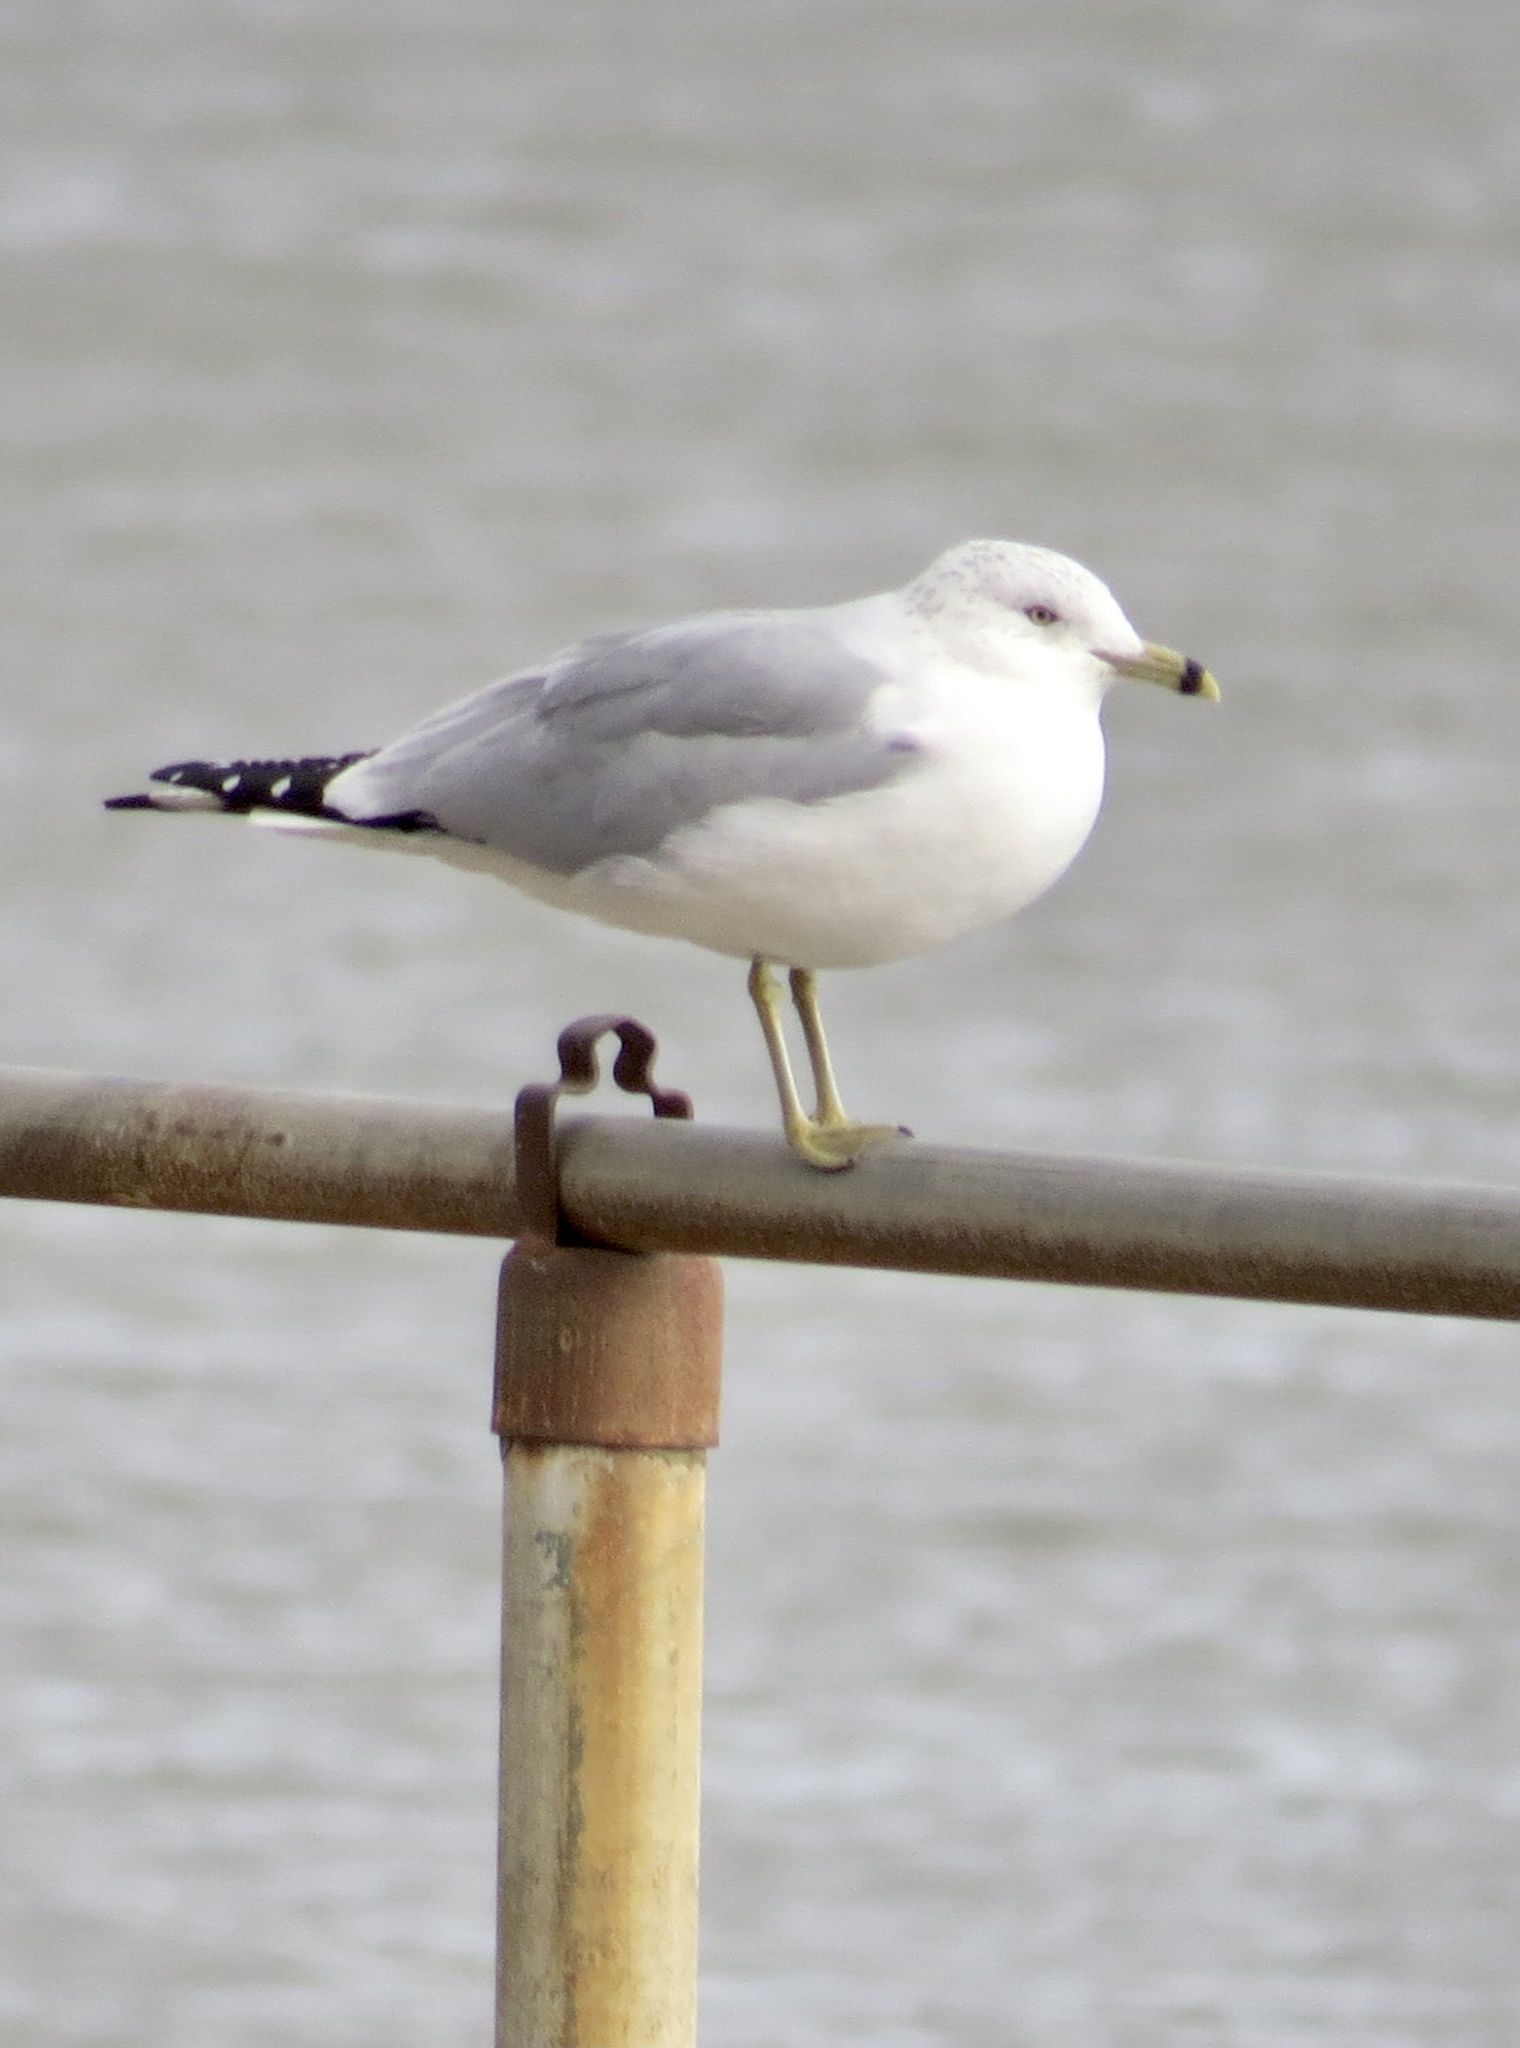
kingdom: Animalia
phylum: Chordata
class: Aves
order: Charadriiformes
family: Laridae
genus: Larus
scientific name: Larus delawarensis
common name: Ring-billed gull
